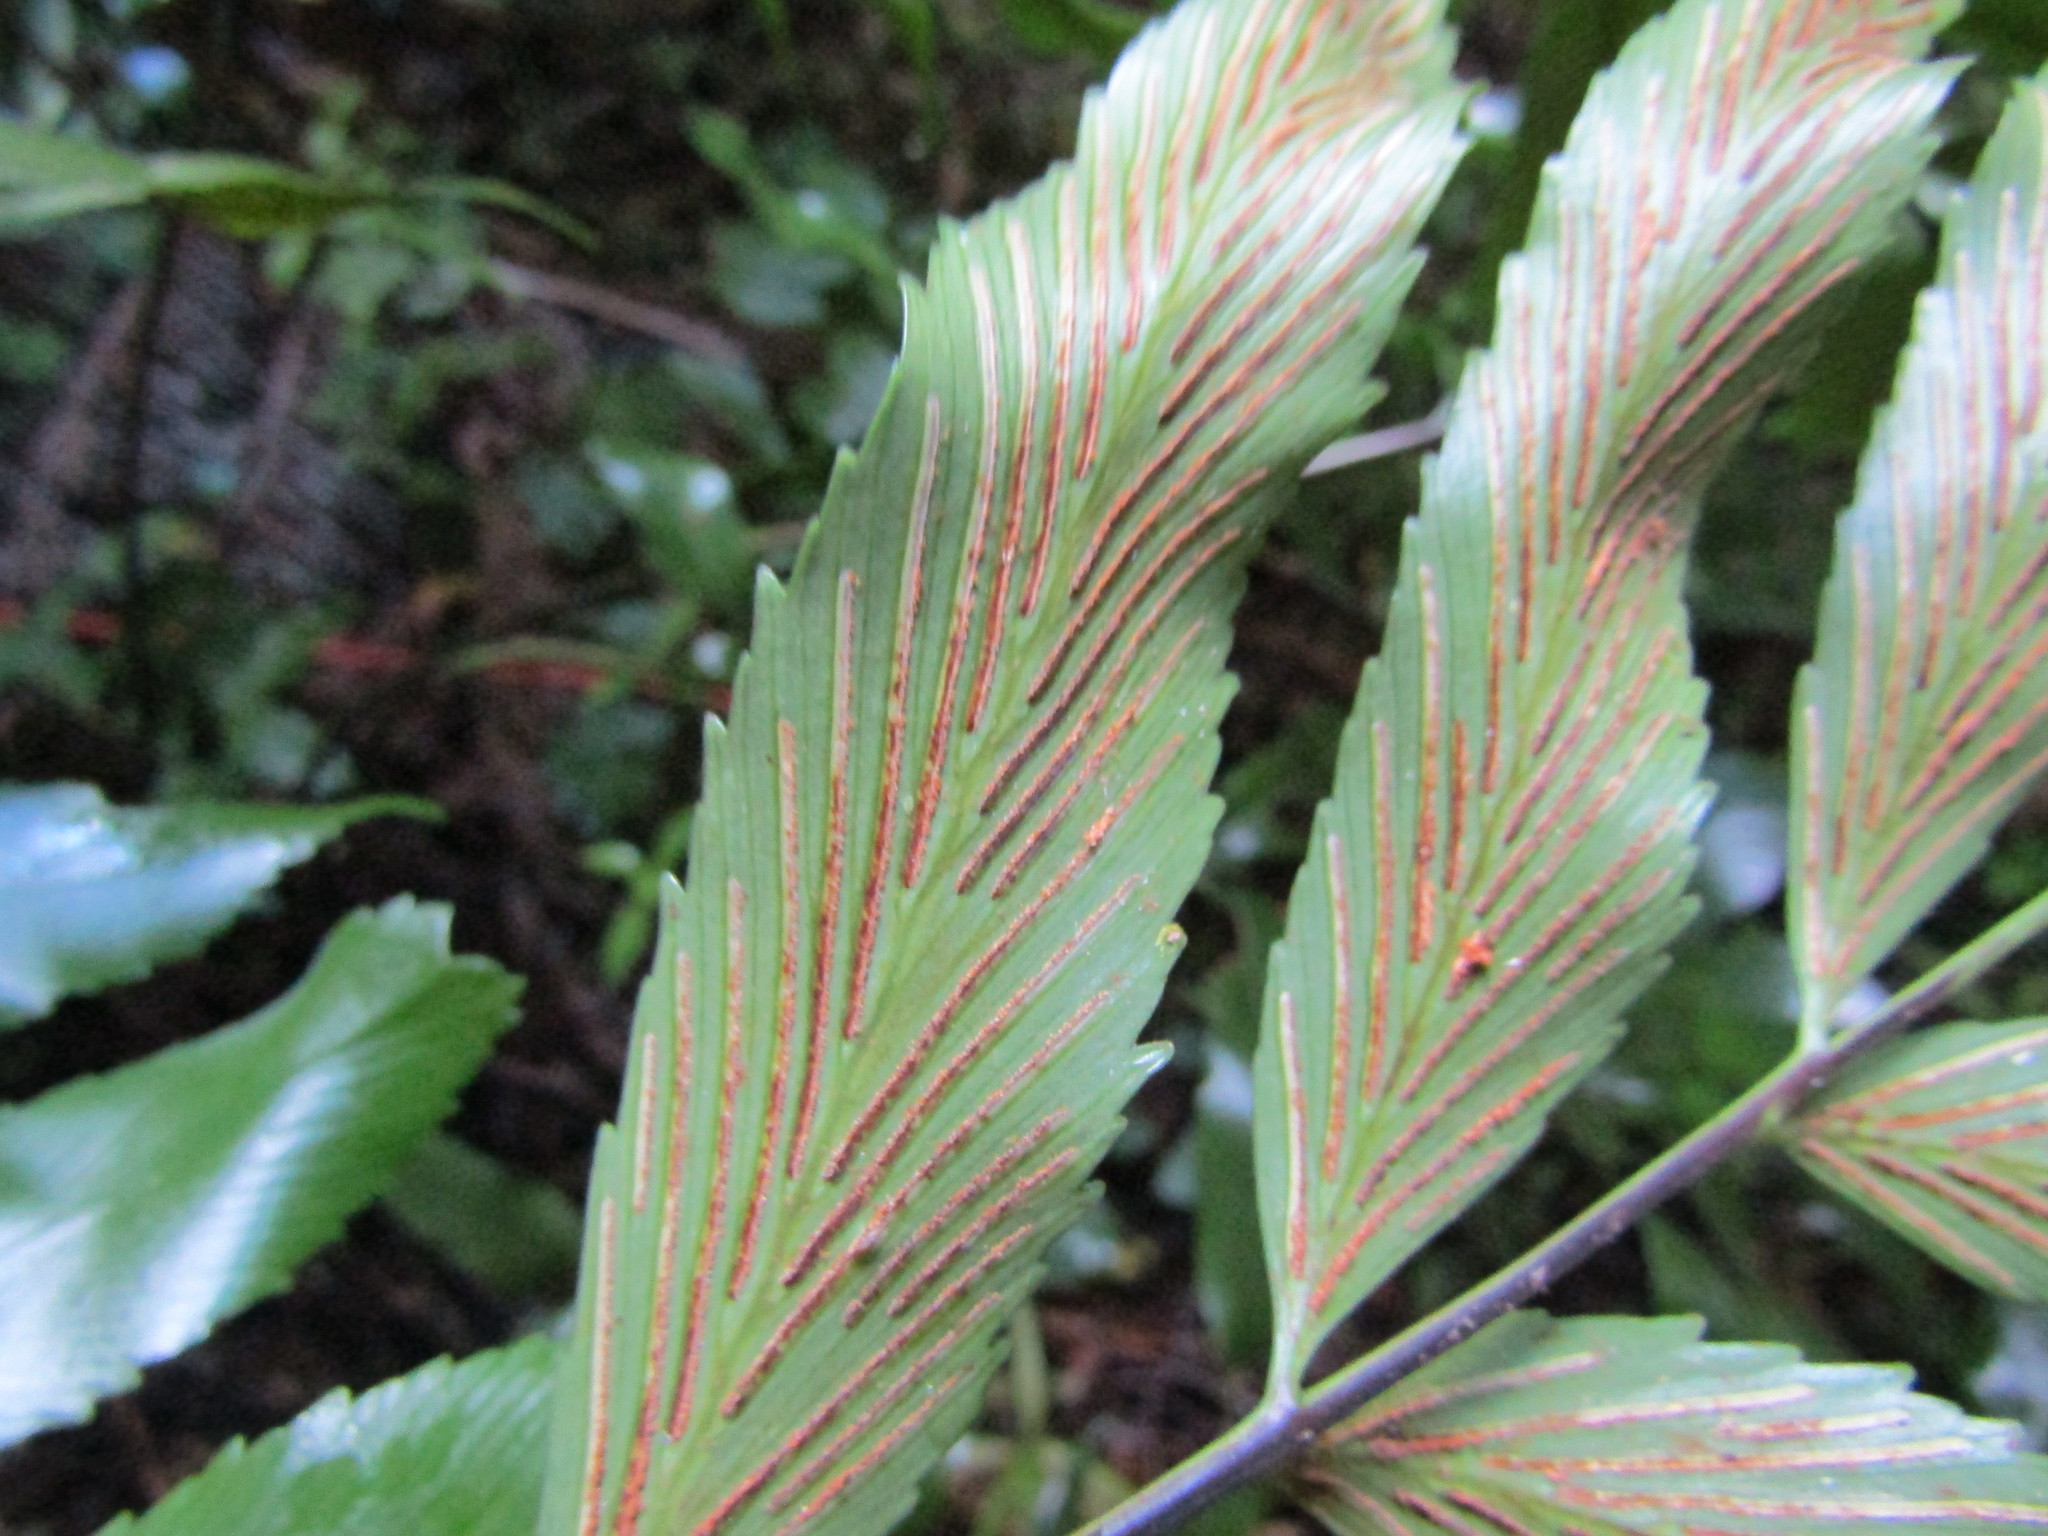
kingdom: Plantae
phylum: Tracheophyta
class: Polypodiopsida
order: Polypodiales
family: Aspleniaceae
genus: Asplenium
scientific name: Asplenium oblongifolium
